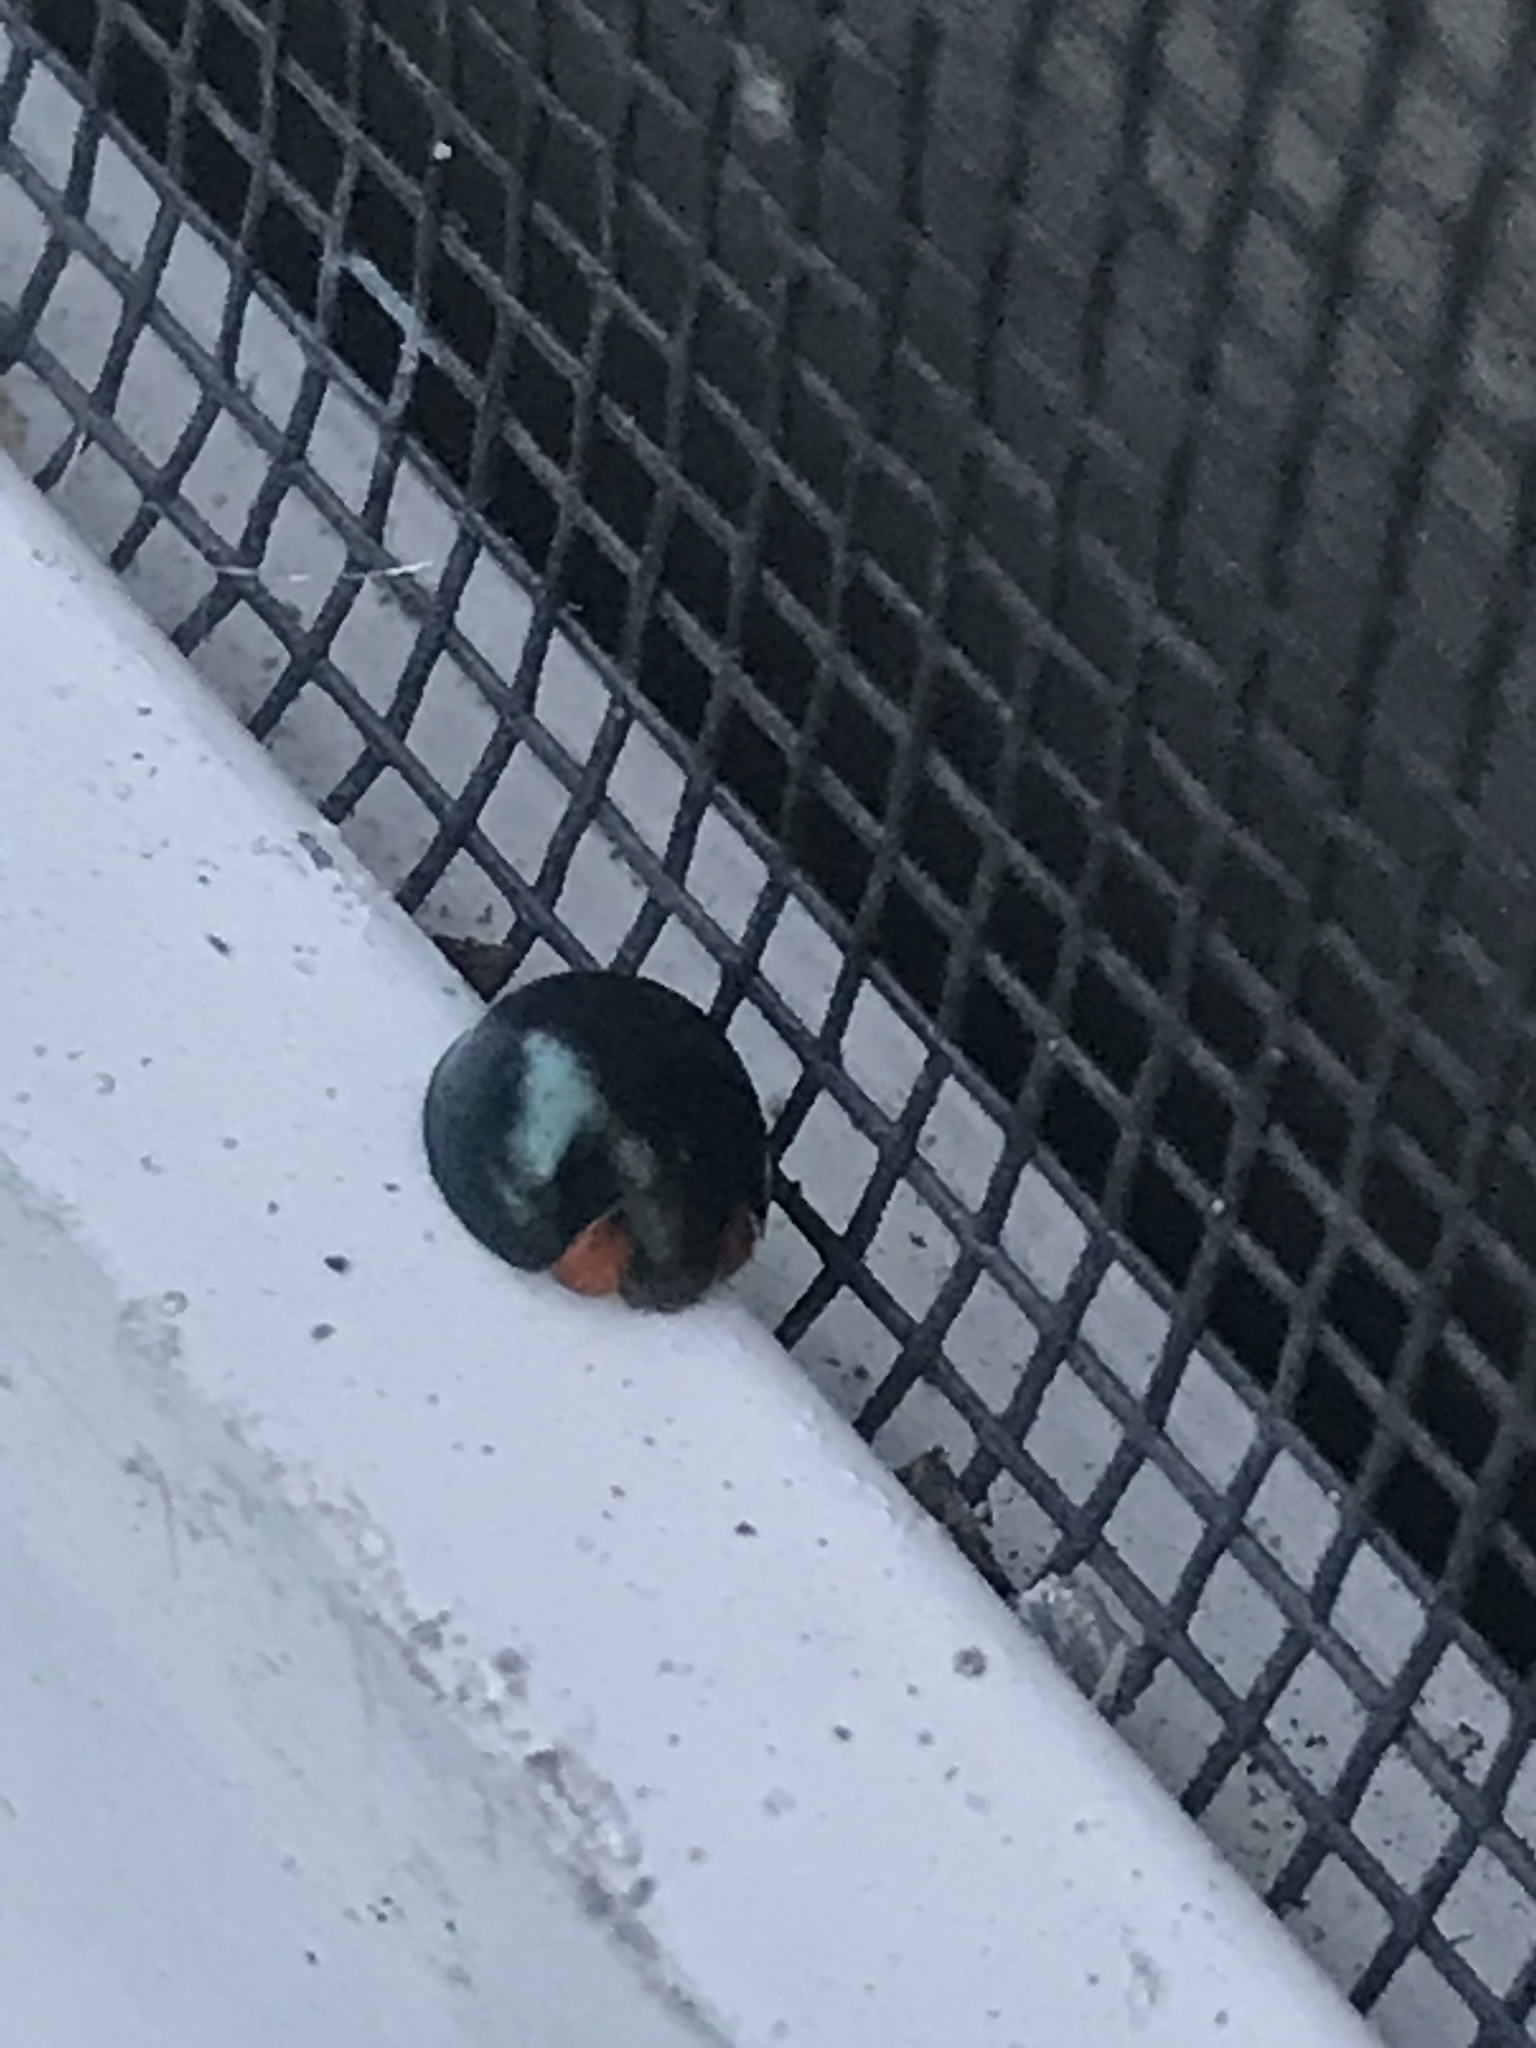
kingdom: Animalia
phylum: Arthropoda
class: Insecta
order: Coleoptera
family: Coccinellidae
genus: Curinus
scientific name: Curinus coeruleus
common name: Ladybird beetle
